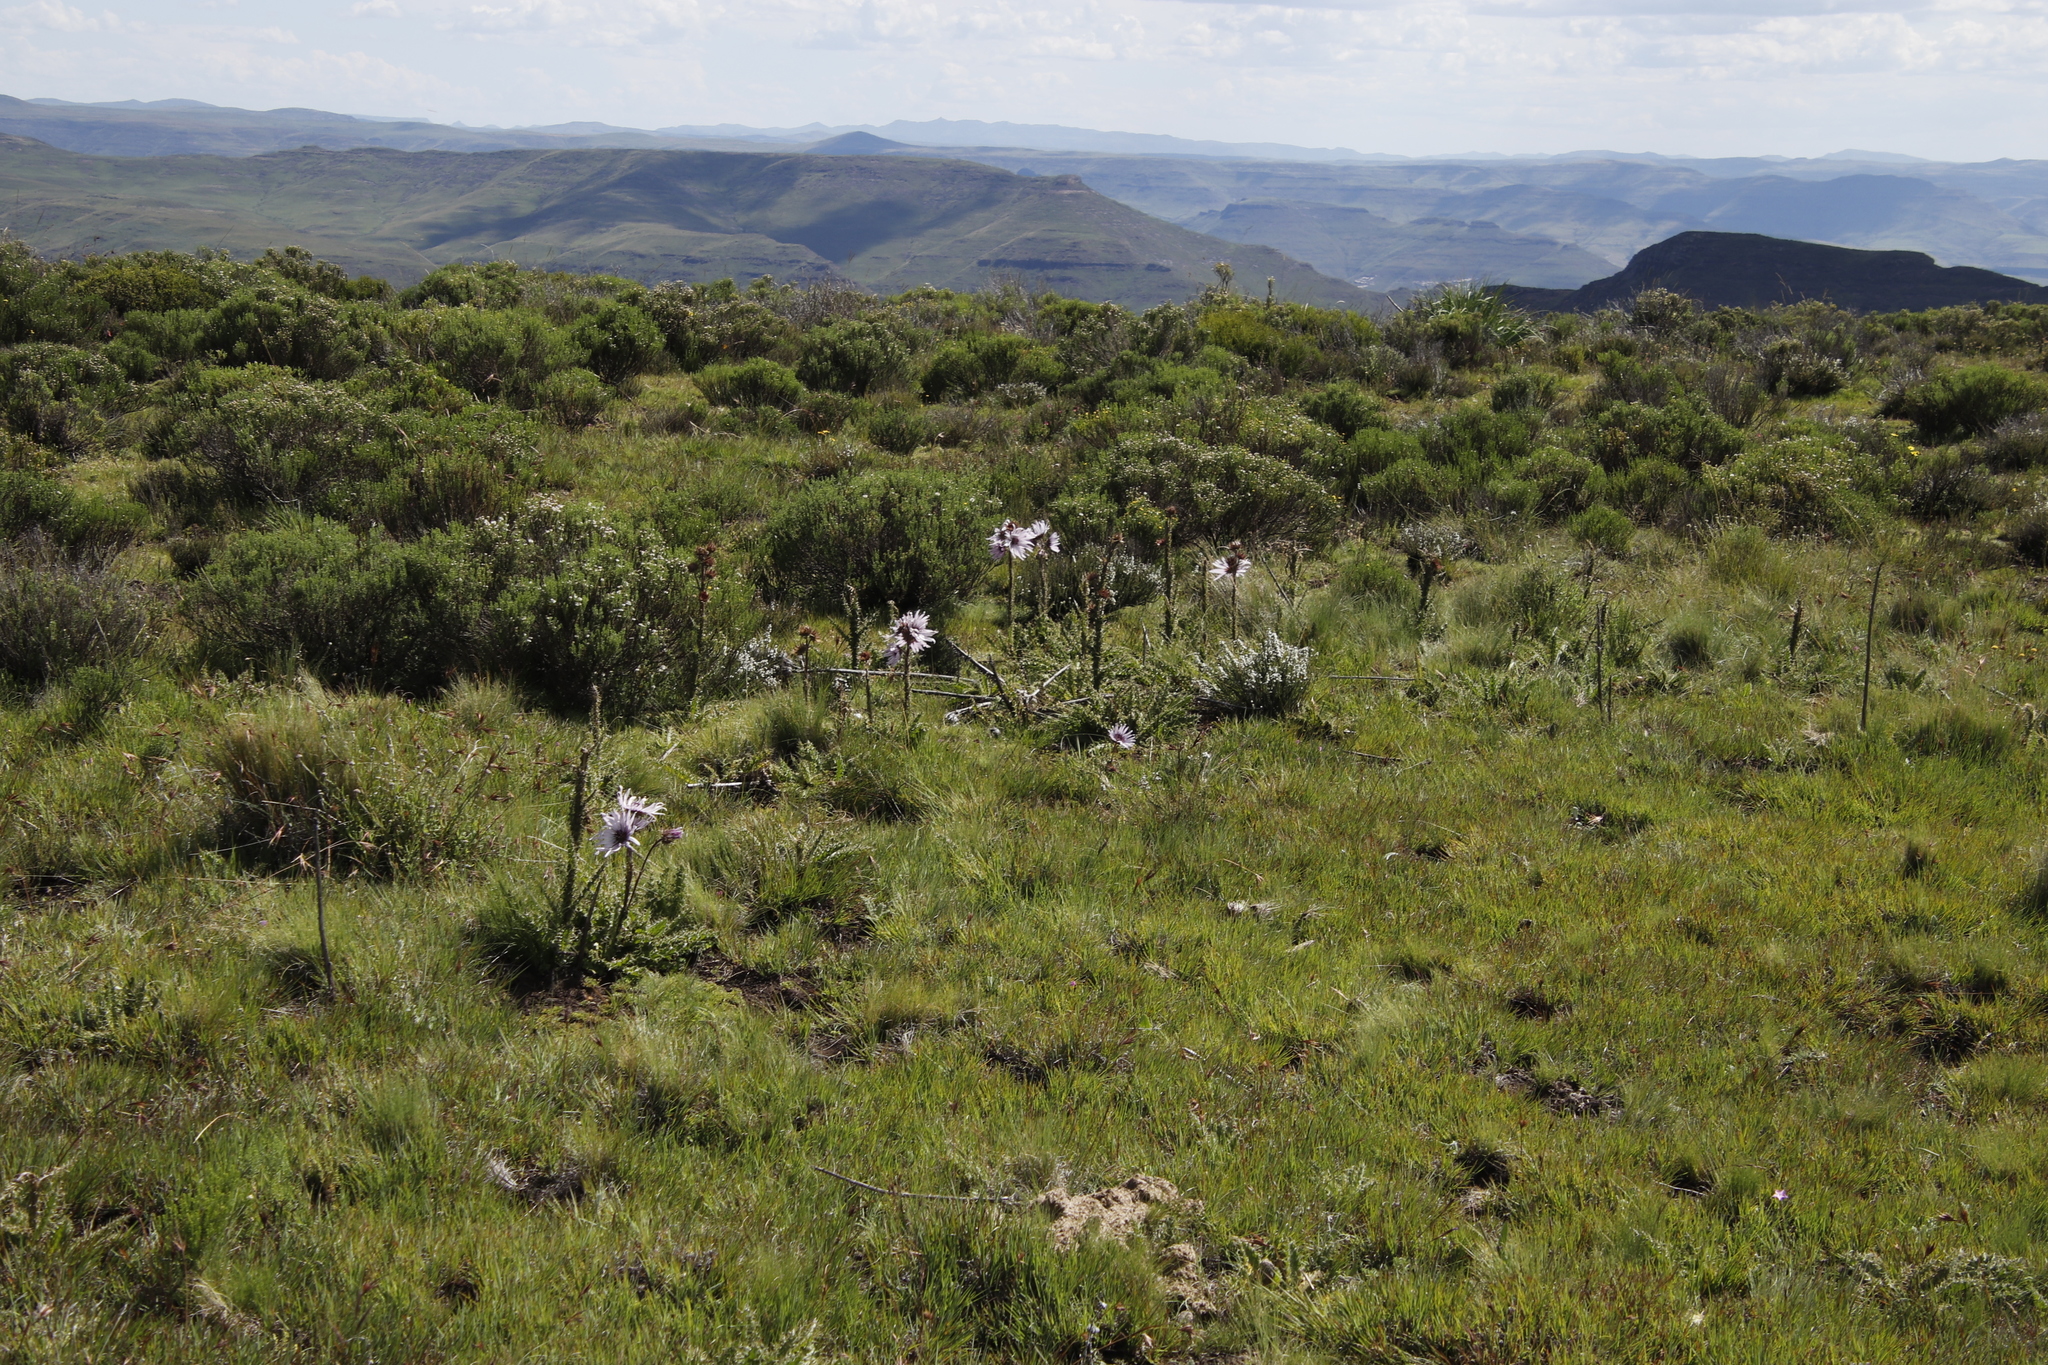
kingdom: Plantae
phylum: Tracheophyta
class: Magnoliopsida
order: Asterales
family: Asteraceae
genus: Berkheya
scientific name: Berkheya purpurea
